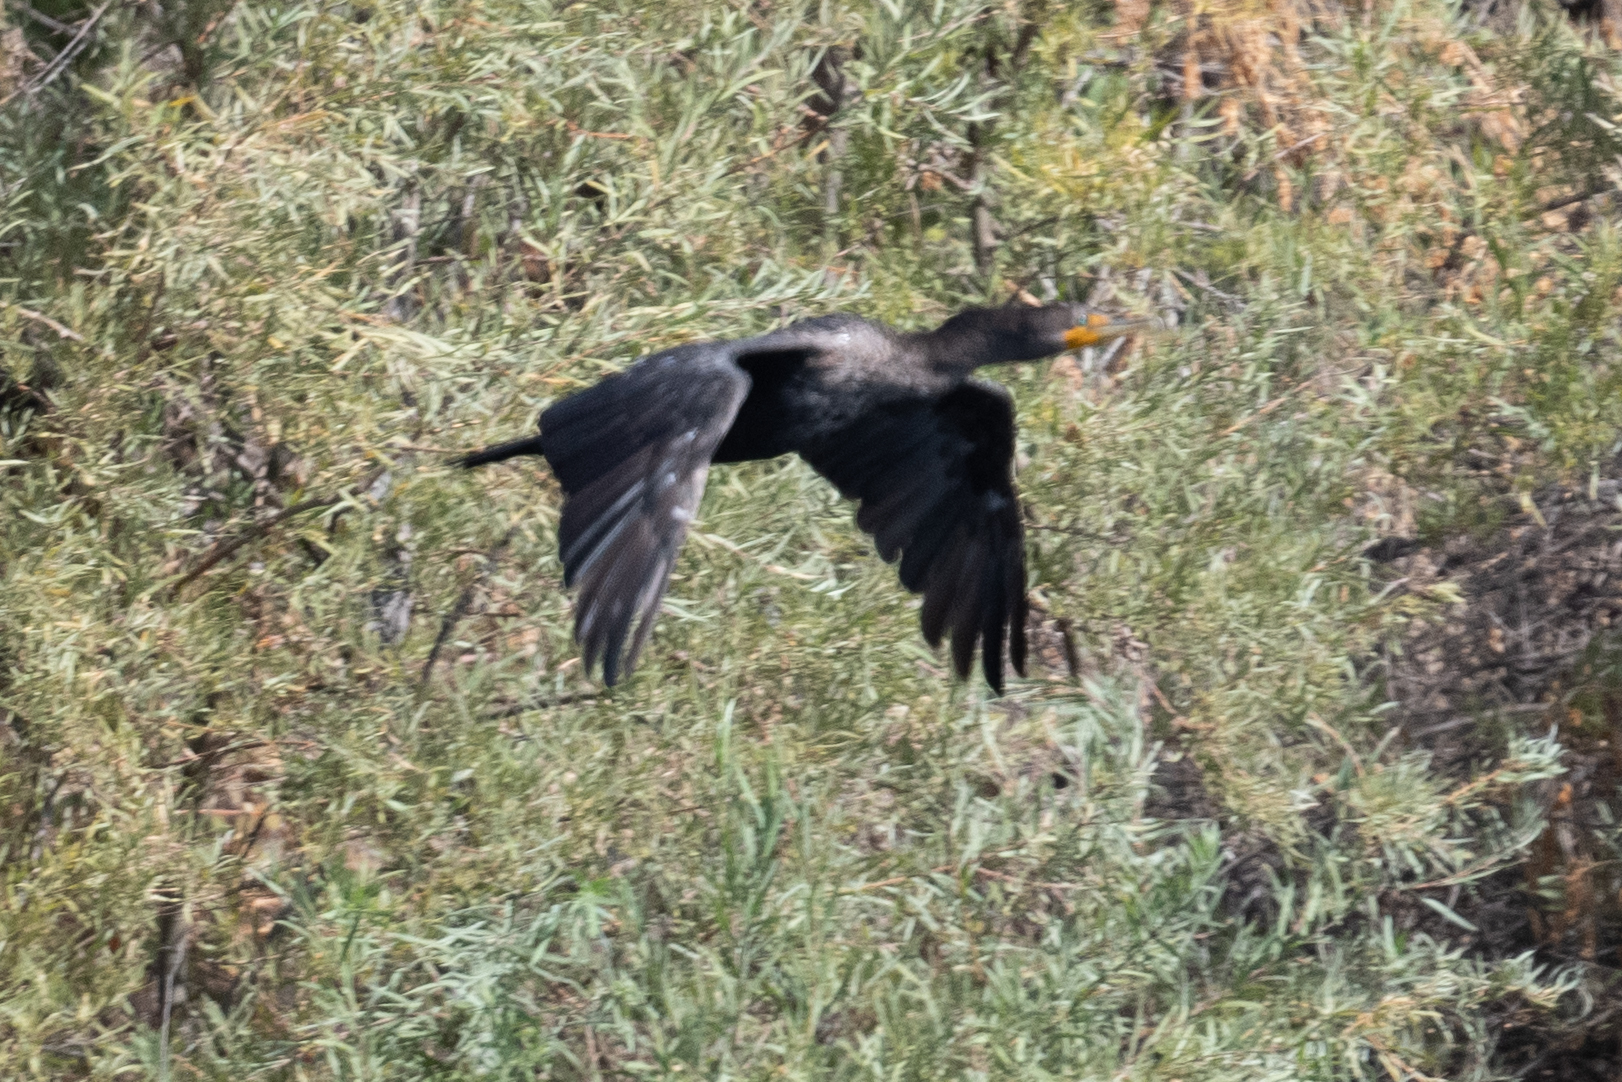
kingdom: Animalia
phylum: Chordata
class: Aves
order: Suliformes
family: Phalacrocoracidae
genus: Phalacrocorax
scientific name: Phalacrocorax auritus
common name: Double-crested cormorant
